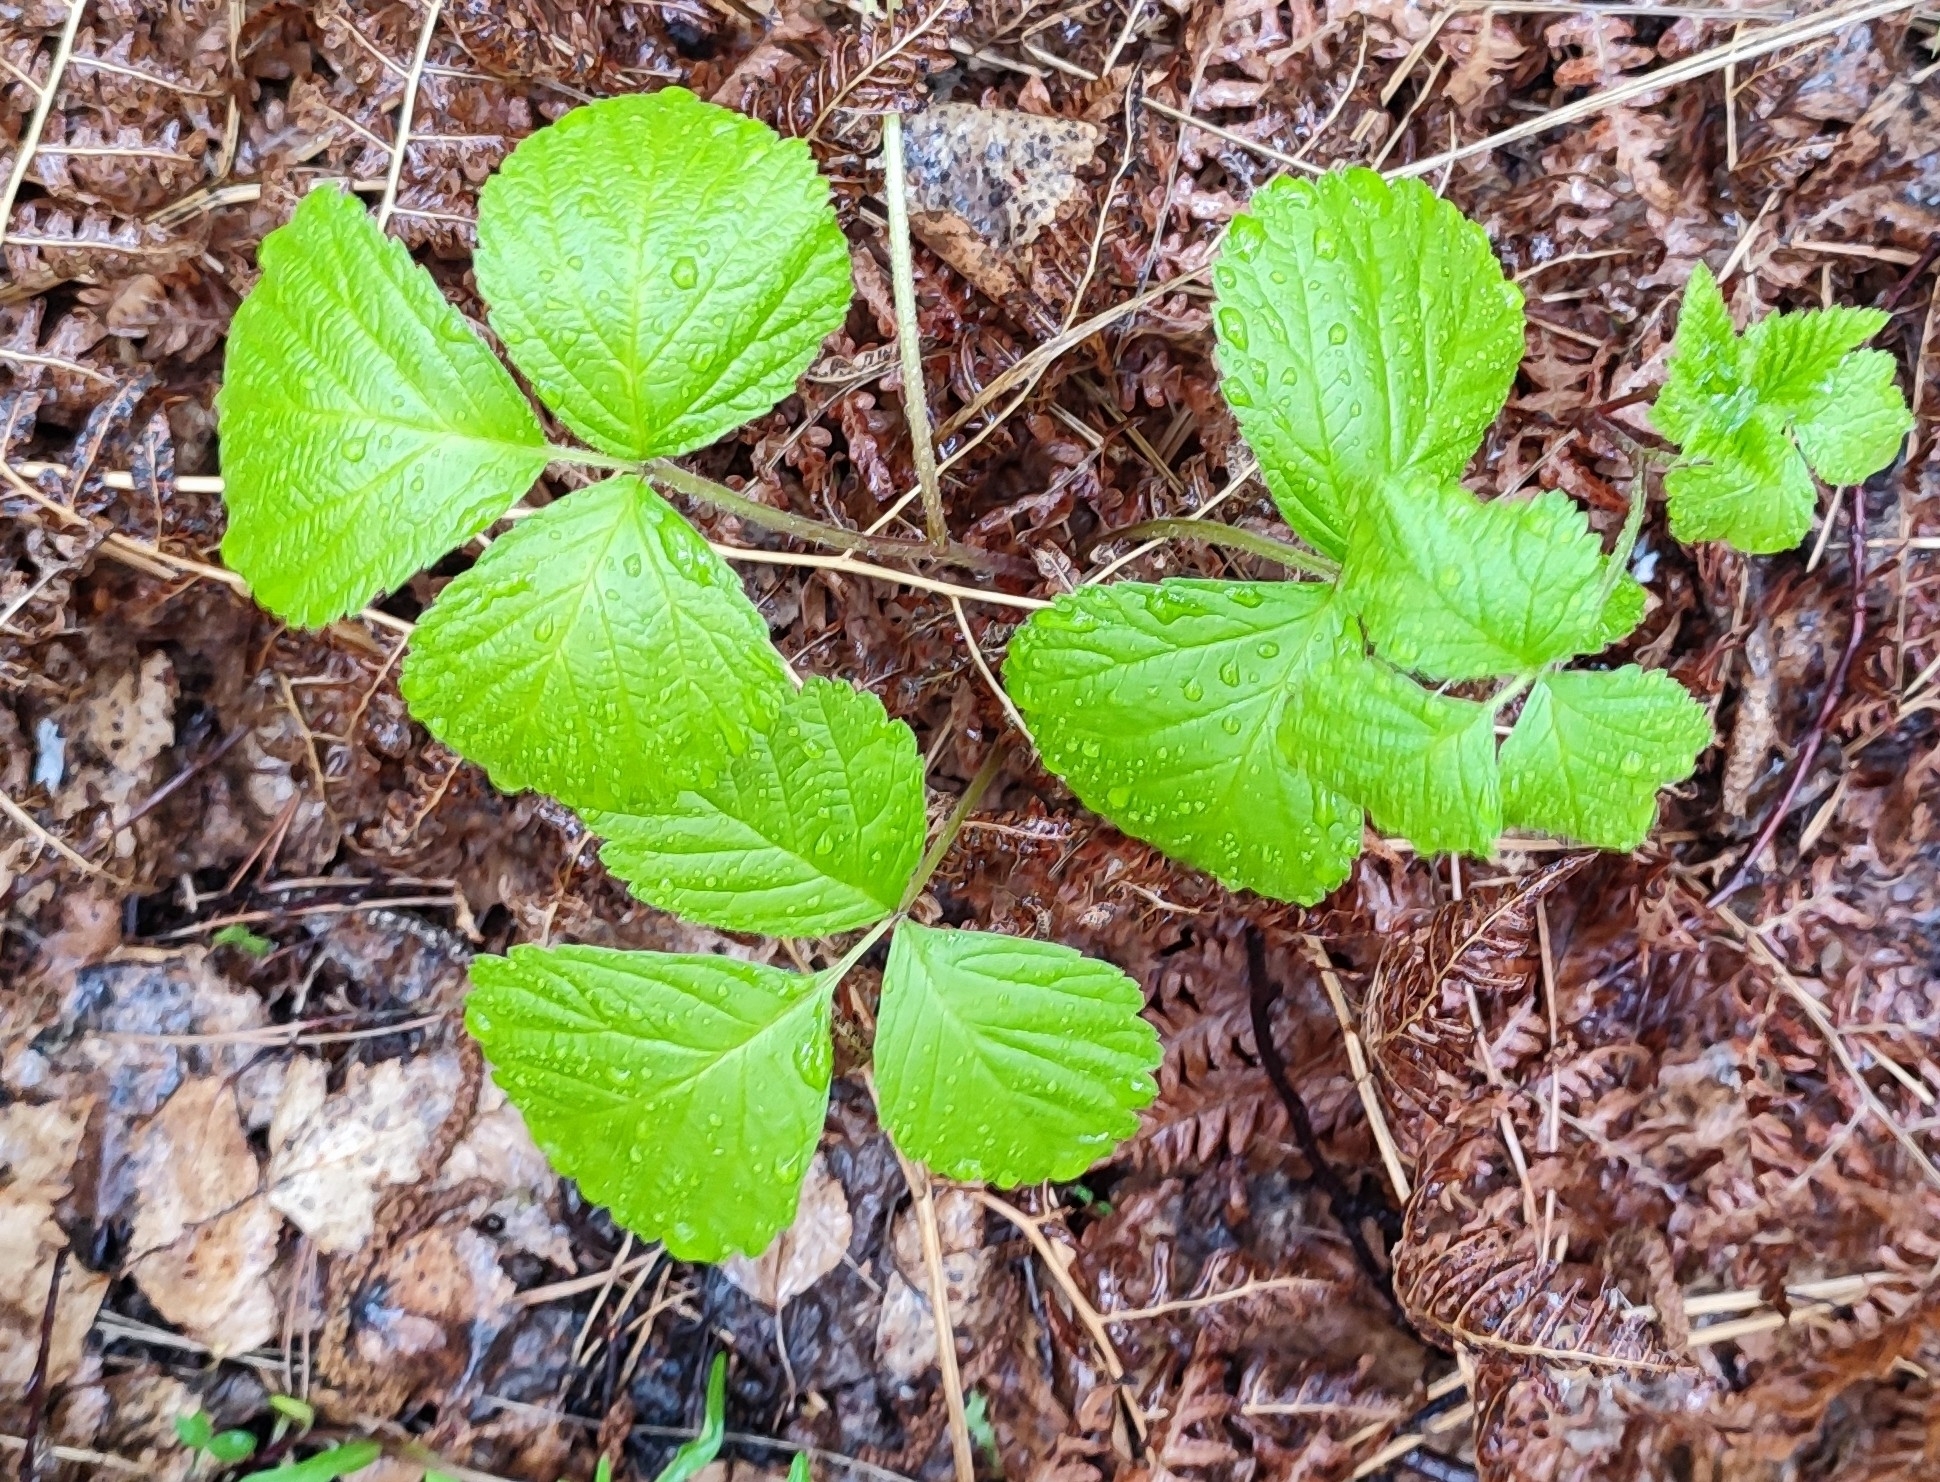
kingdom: Plantae
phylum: Tracheophyta
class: Magnoliopsida
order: Rosales
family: Rosaceae
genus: Rubus
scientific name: Rubus saxatilis
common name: Stone bramble
